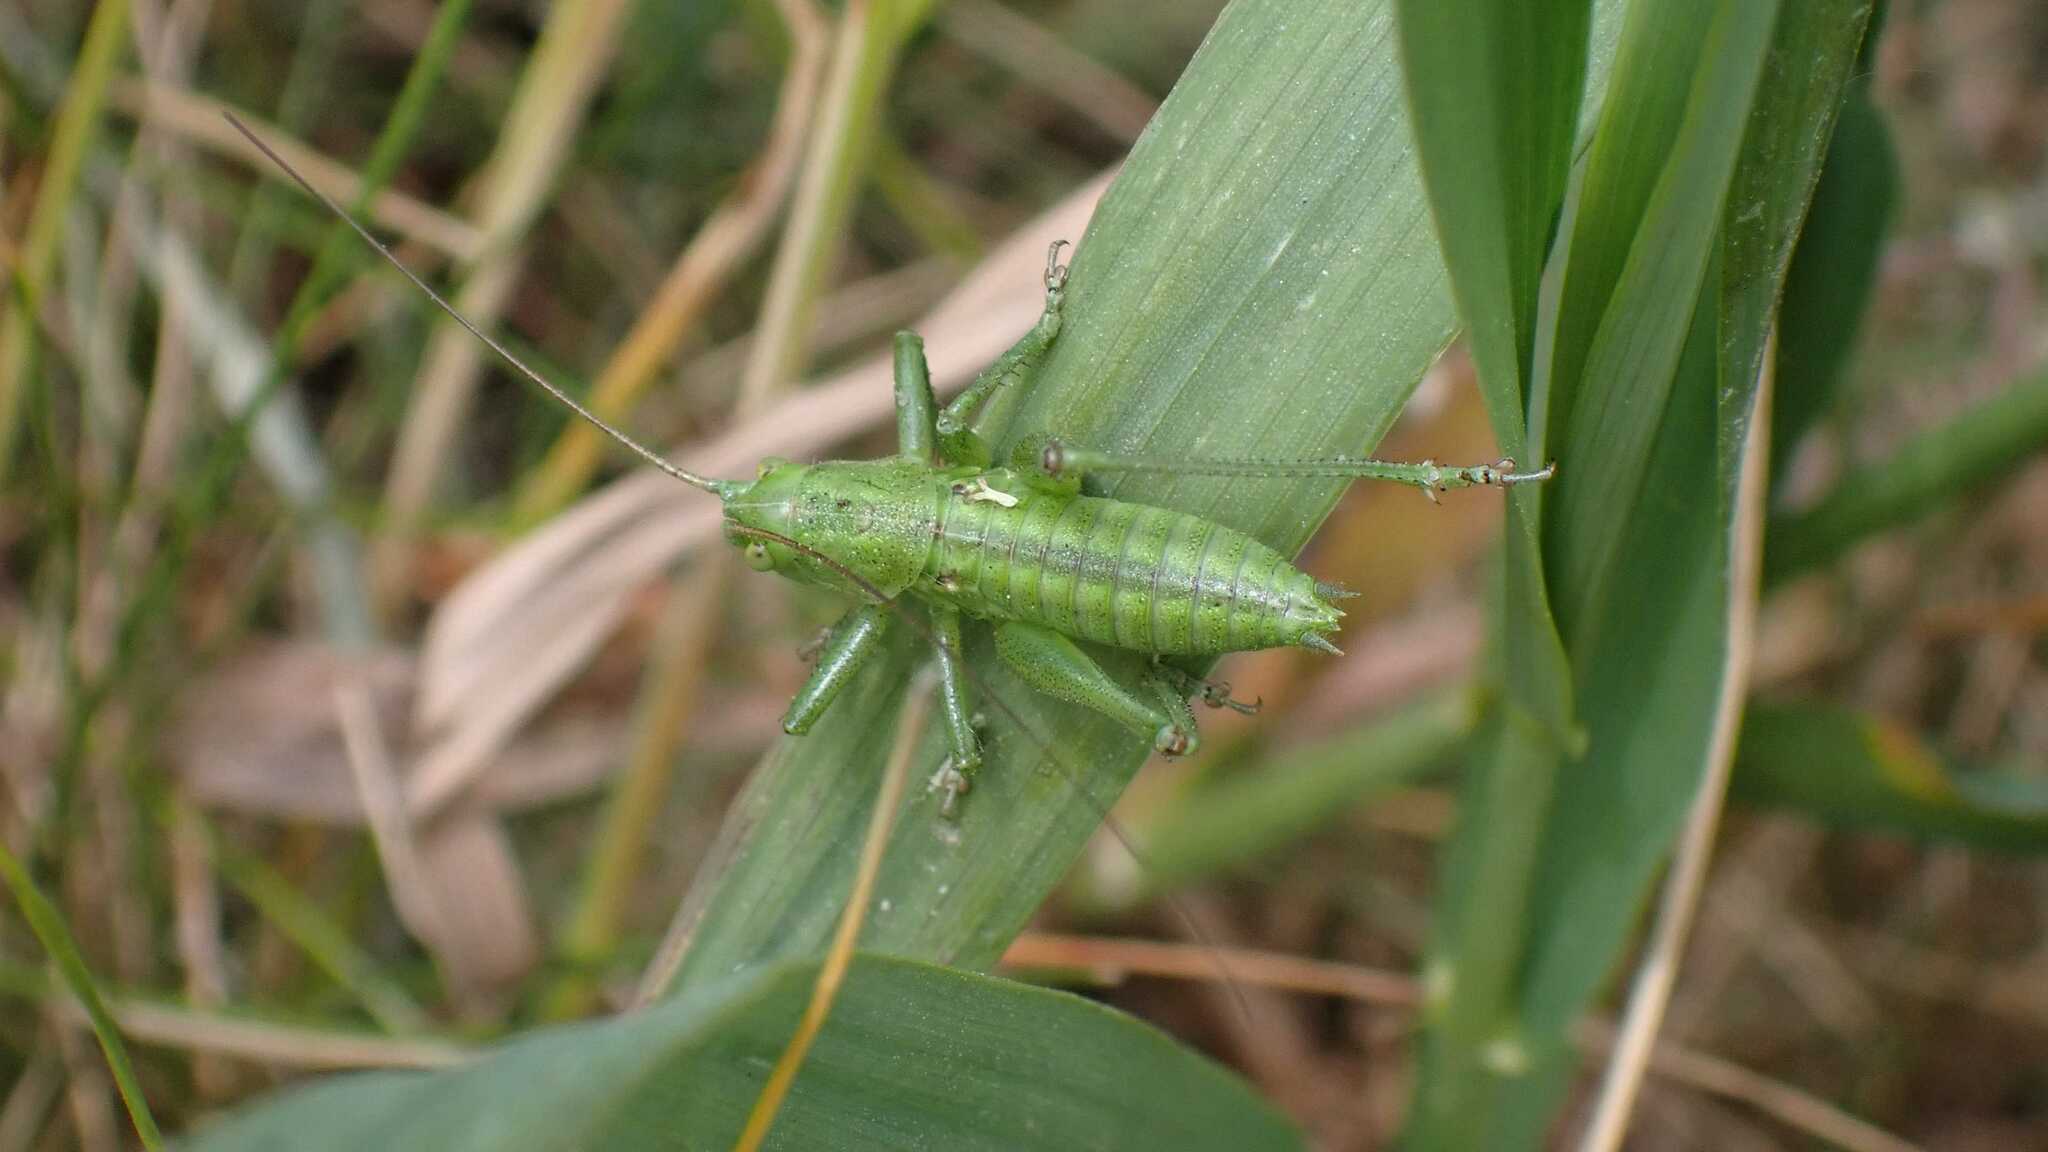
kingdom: Animalia
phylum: Arthropoda
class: Insecta
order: Orthoptera
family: Tettigoniidae
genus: Tettigonia
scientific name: Tettigonia viridissima
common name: Great green bush-cricket
